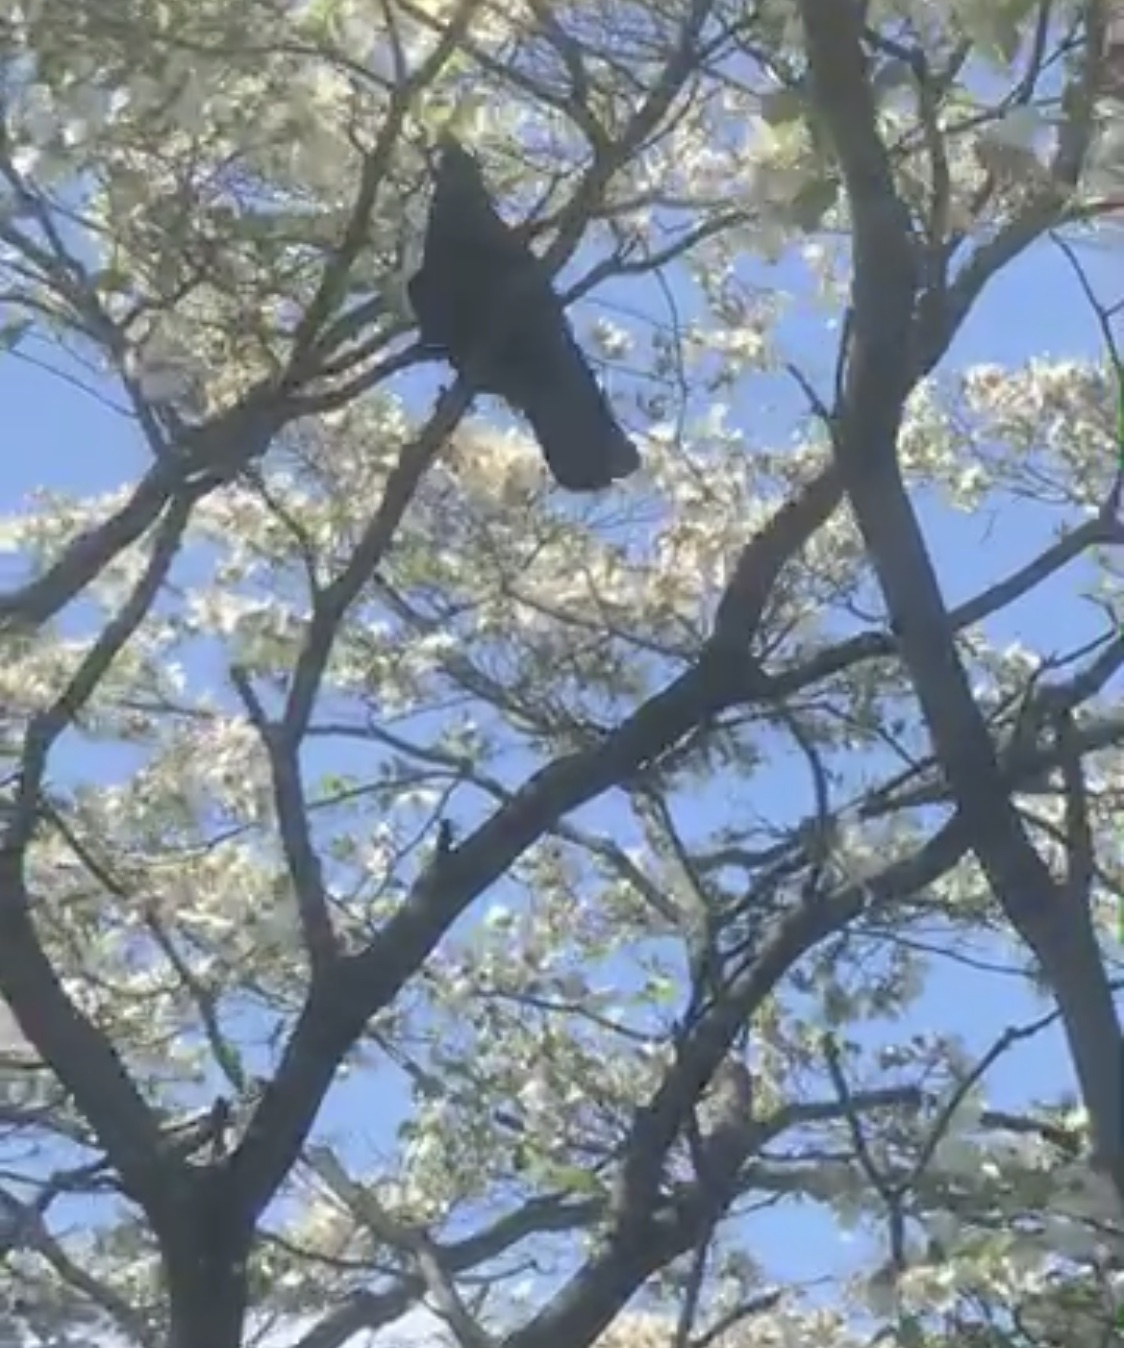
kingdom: Animalia
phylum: Chordata
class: Aves
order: Passeriformes
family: Corvidae
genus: Corvus
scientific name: Corvus
